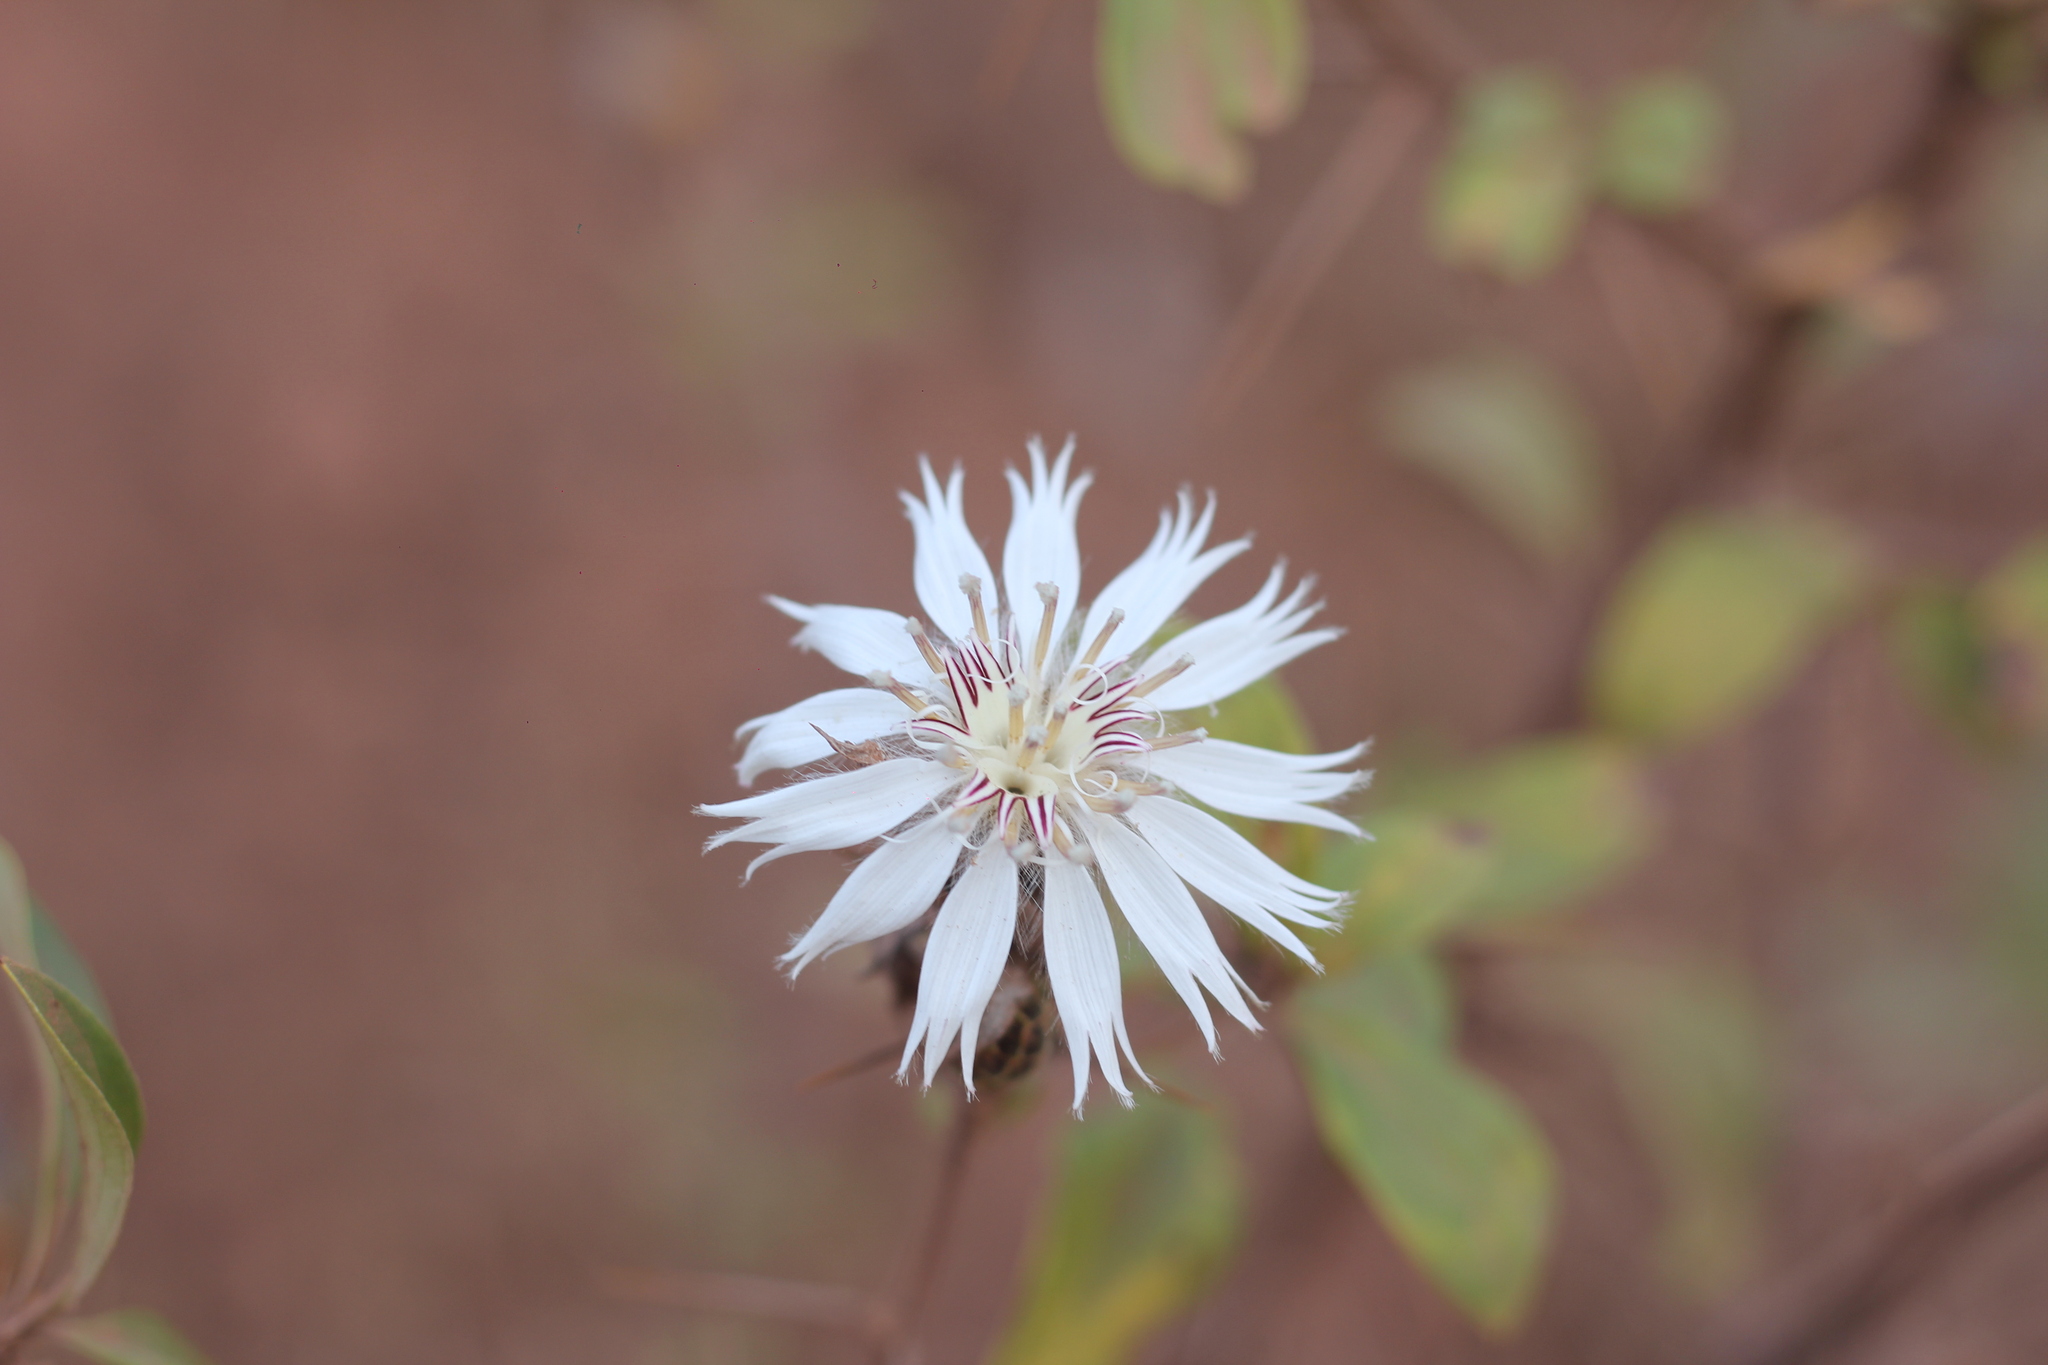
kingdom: Plantae
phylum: Tracheophyta
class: Magnoliopsida
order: Asterales
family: Asteraceae
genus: Barnadesia
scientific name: Barnadesia odorata
